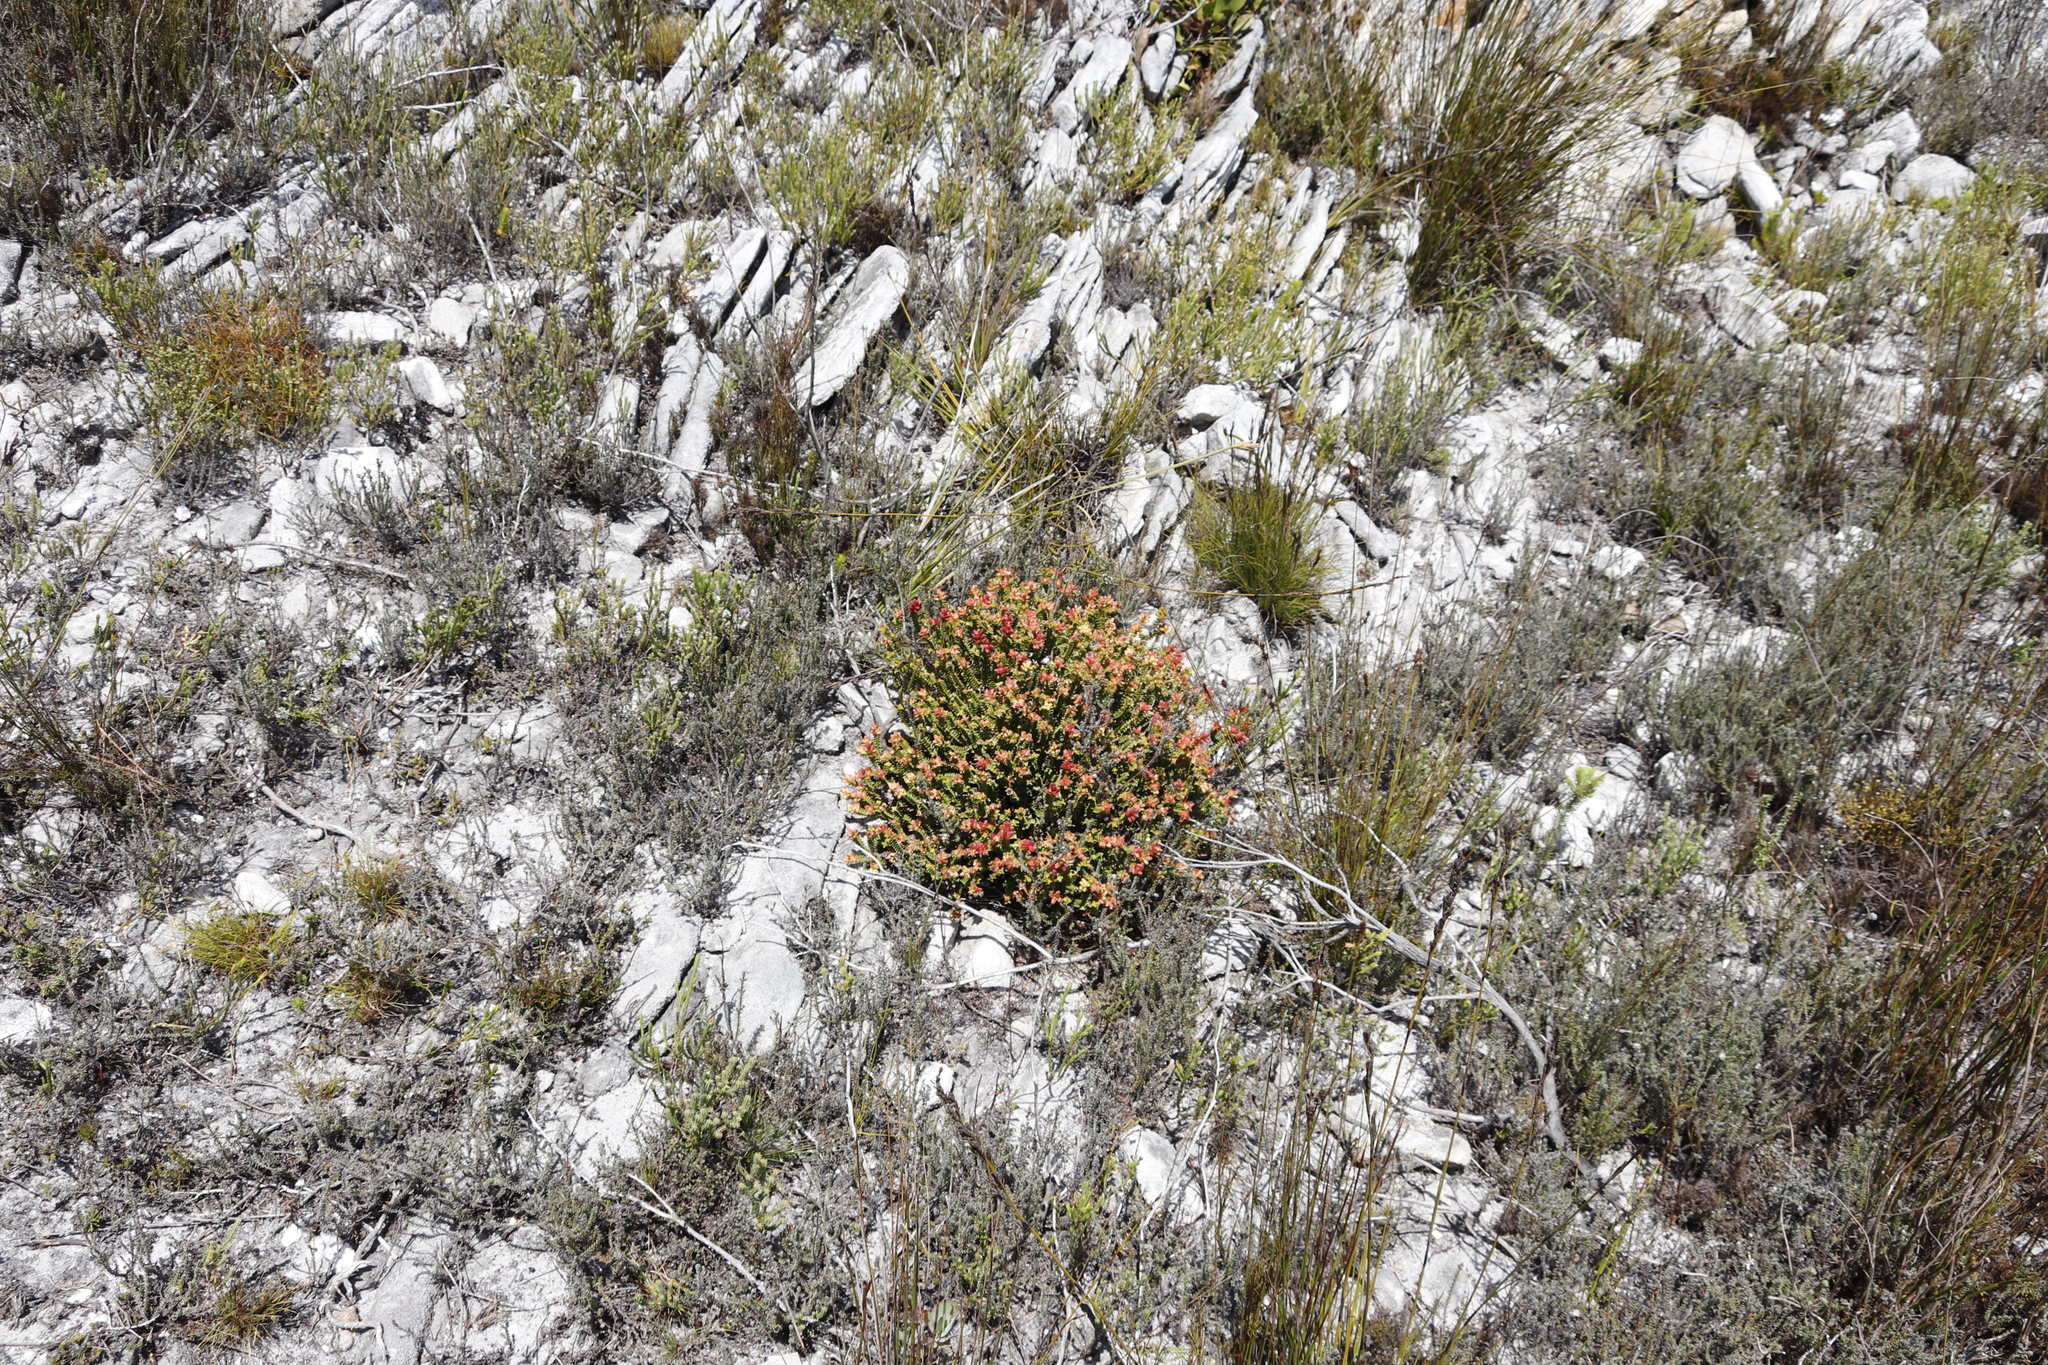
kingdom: Plantae
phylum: Tracheophyta
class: Magnoliopsida
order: Myrtales
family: Penaeaceae
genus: Penaea
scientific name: Penaea mucronata
